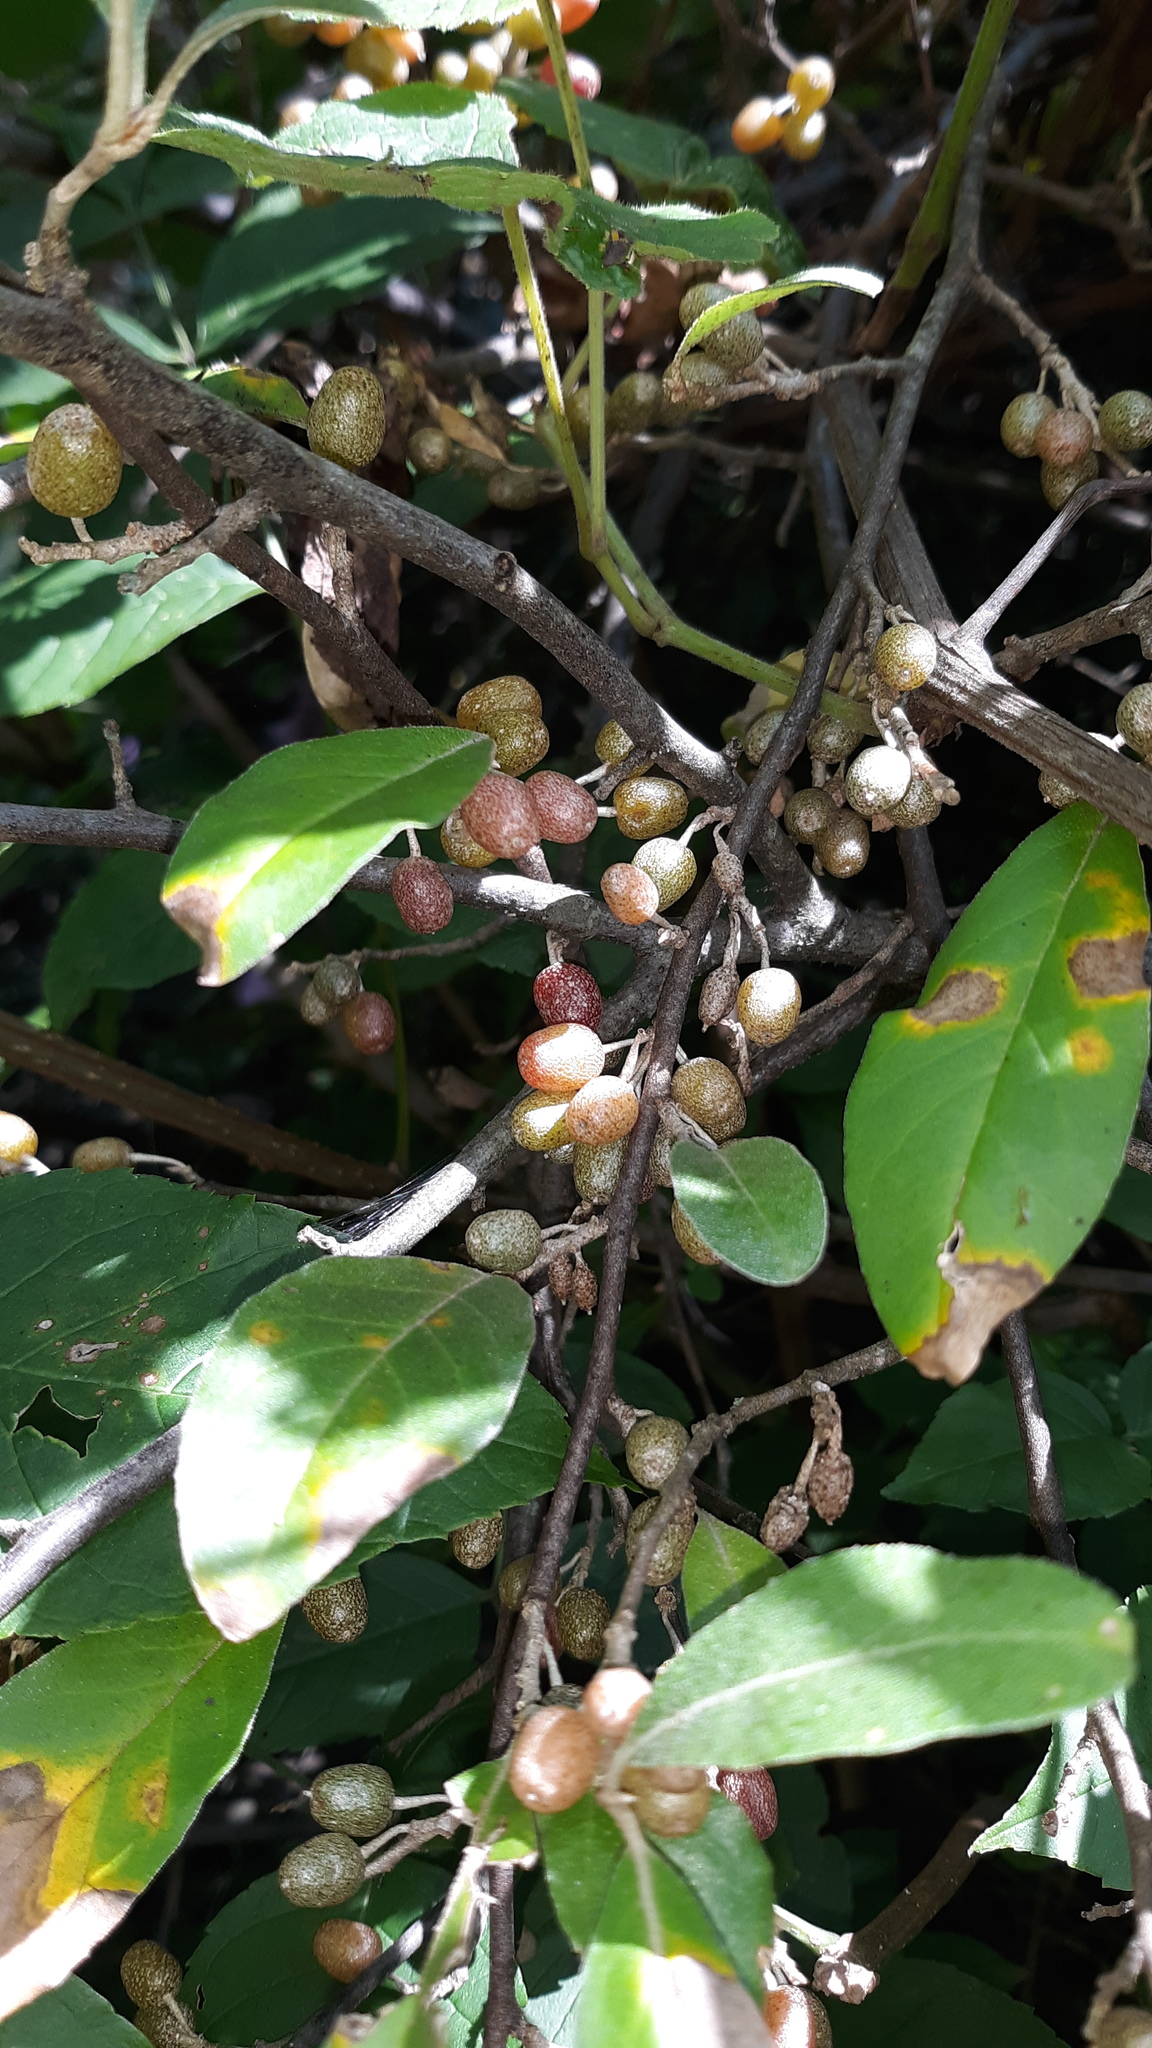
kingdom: Plantae
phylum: Tracheophyta
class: Magnoliopsida
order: Rosales
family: Elaeagnaceae
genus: Elaeagnus
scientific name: Elaeagnus umbellata
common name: Autumn olive
